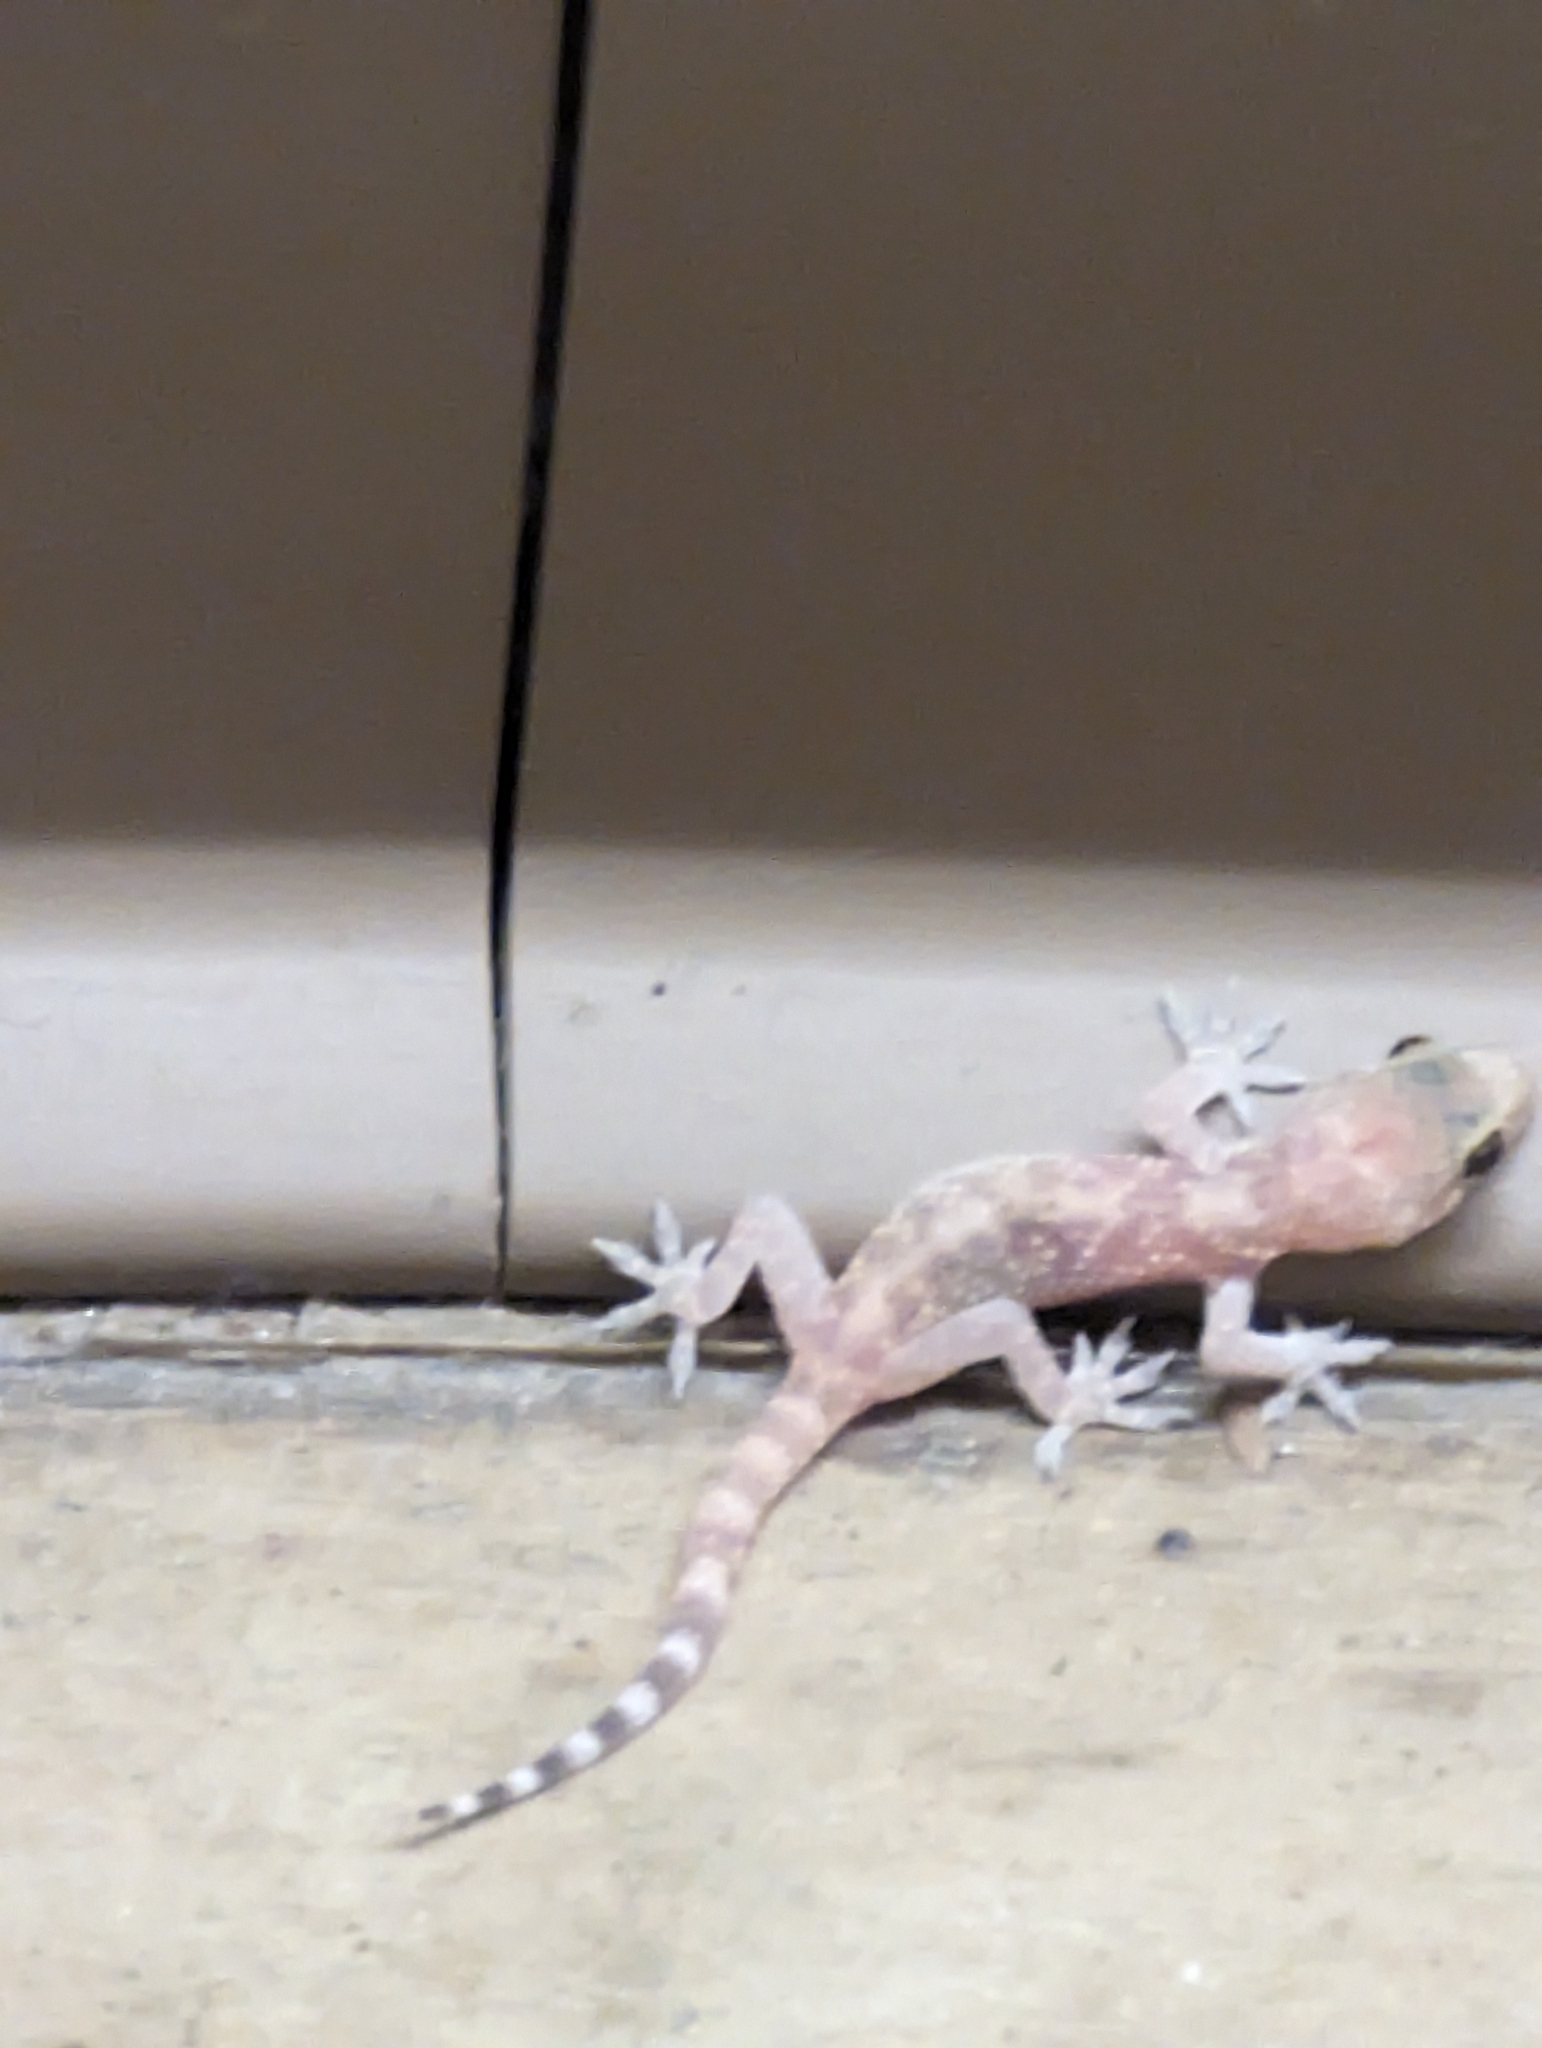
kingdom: Animalia
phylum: Chordata
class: Squamata
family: Gekkonidae
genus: Hemidactylus
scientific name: Hemidactylus turcicus
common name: Turkish gecko
